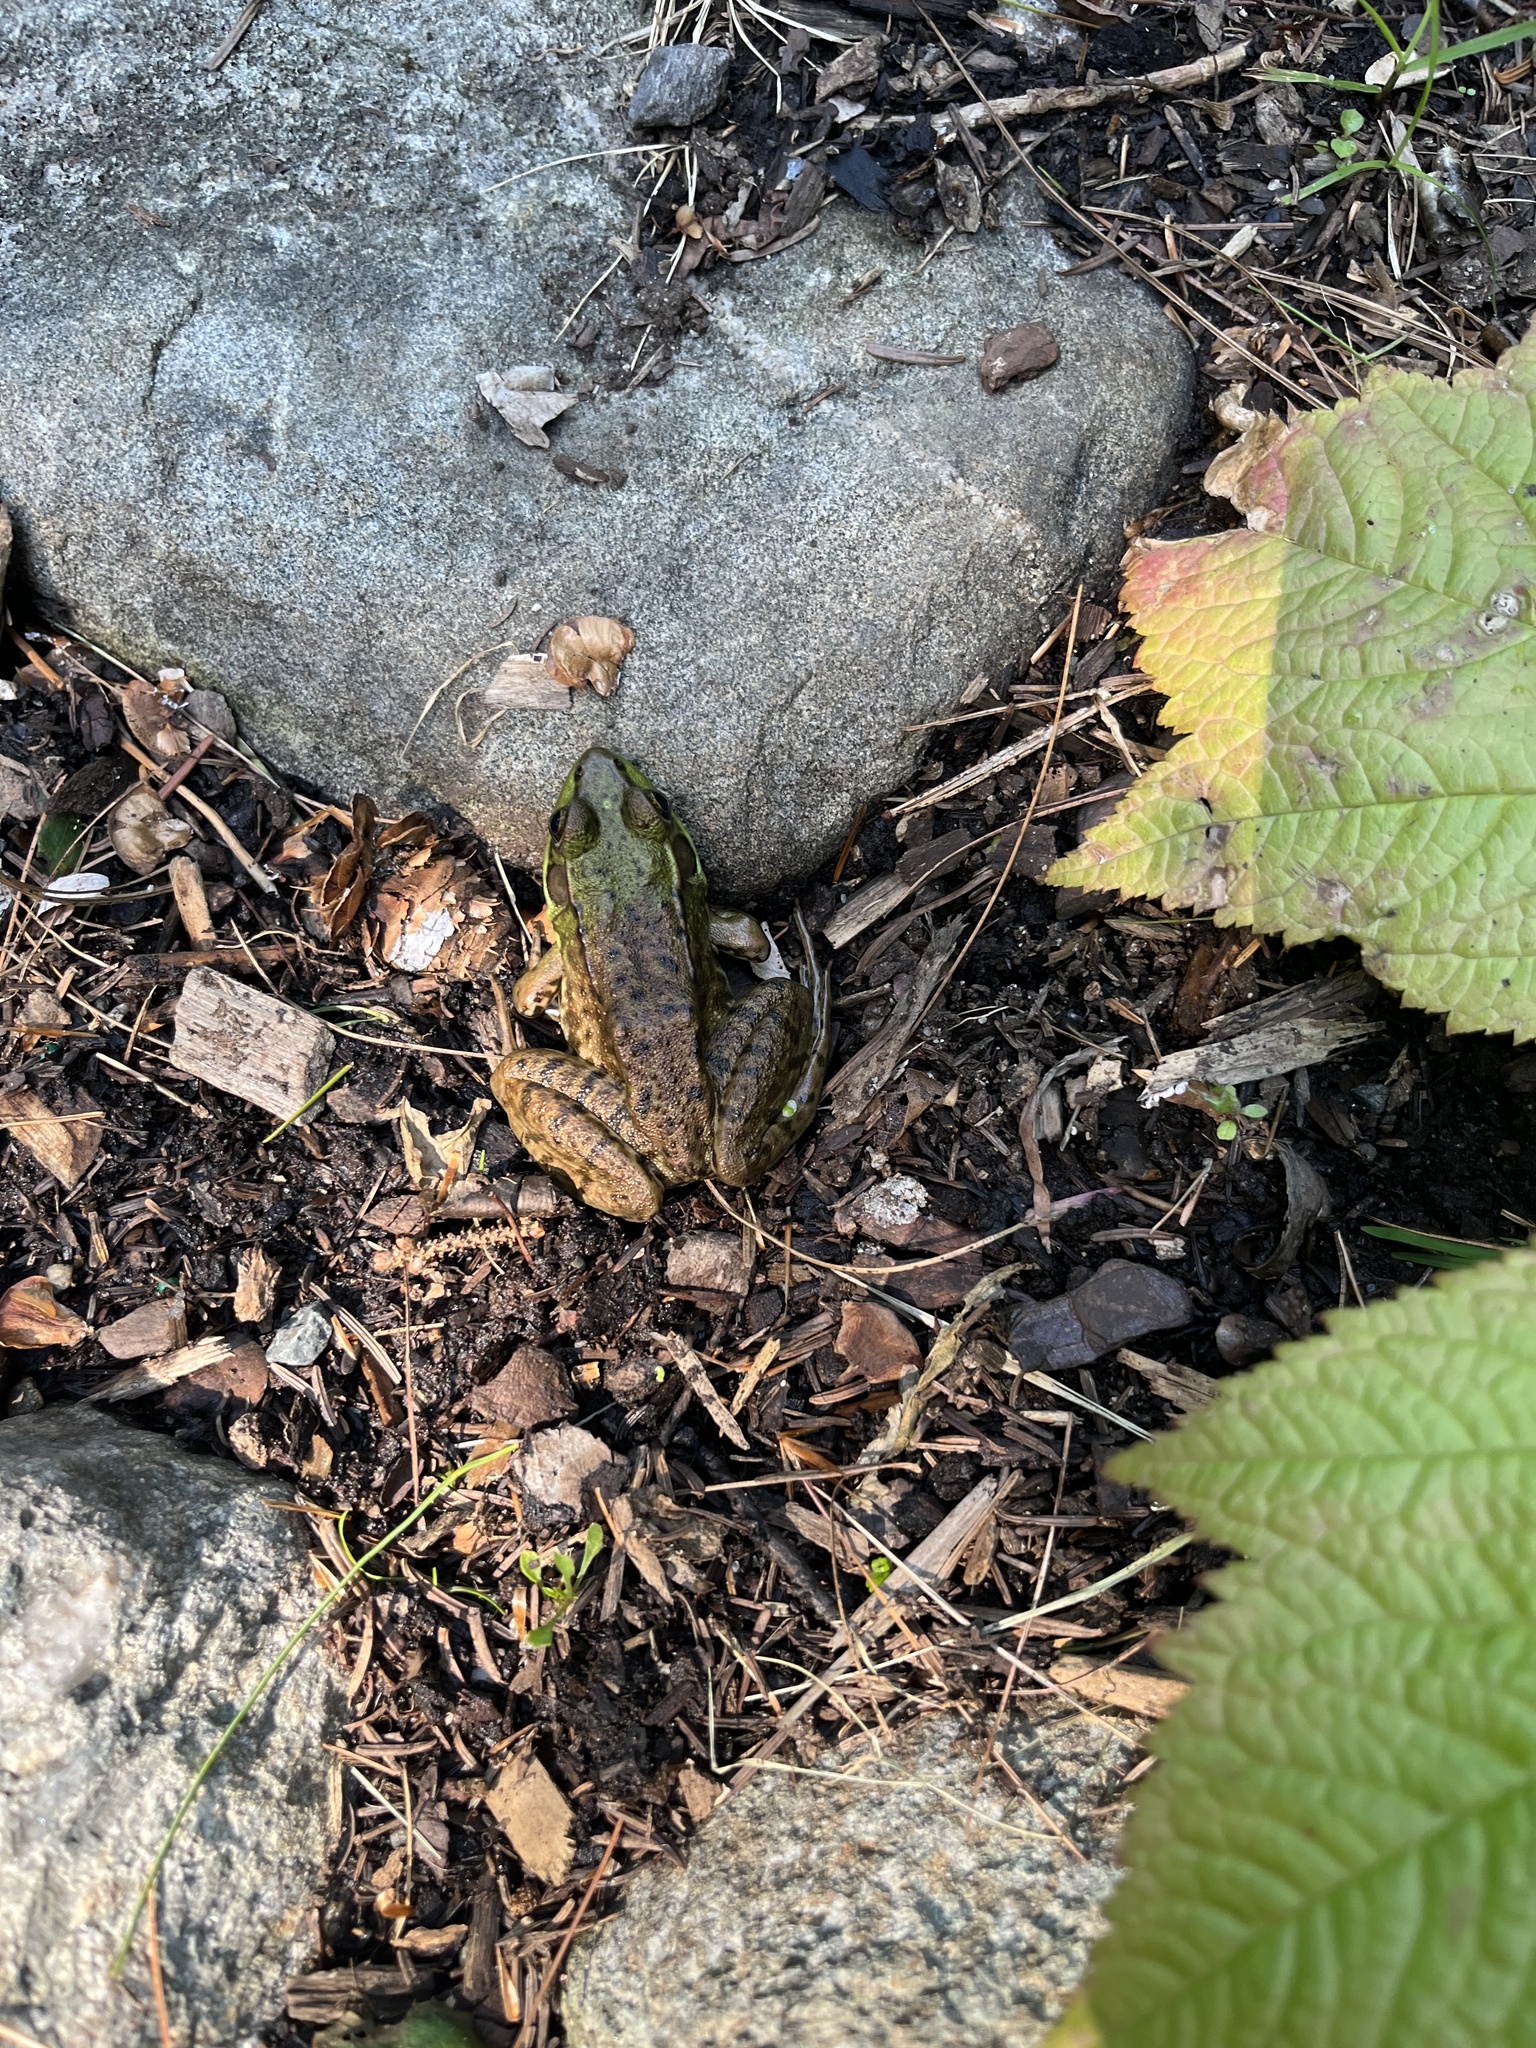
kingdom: Animalia
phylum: Chordata
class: Amphibia
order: Anura
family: Ranidae
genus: Lithobates
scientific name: Lithobates clamitans
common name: Green frog
